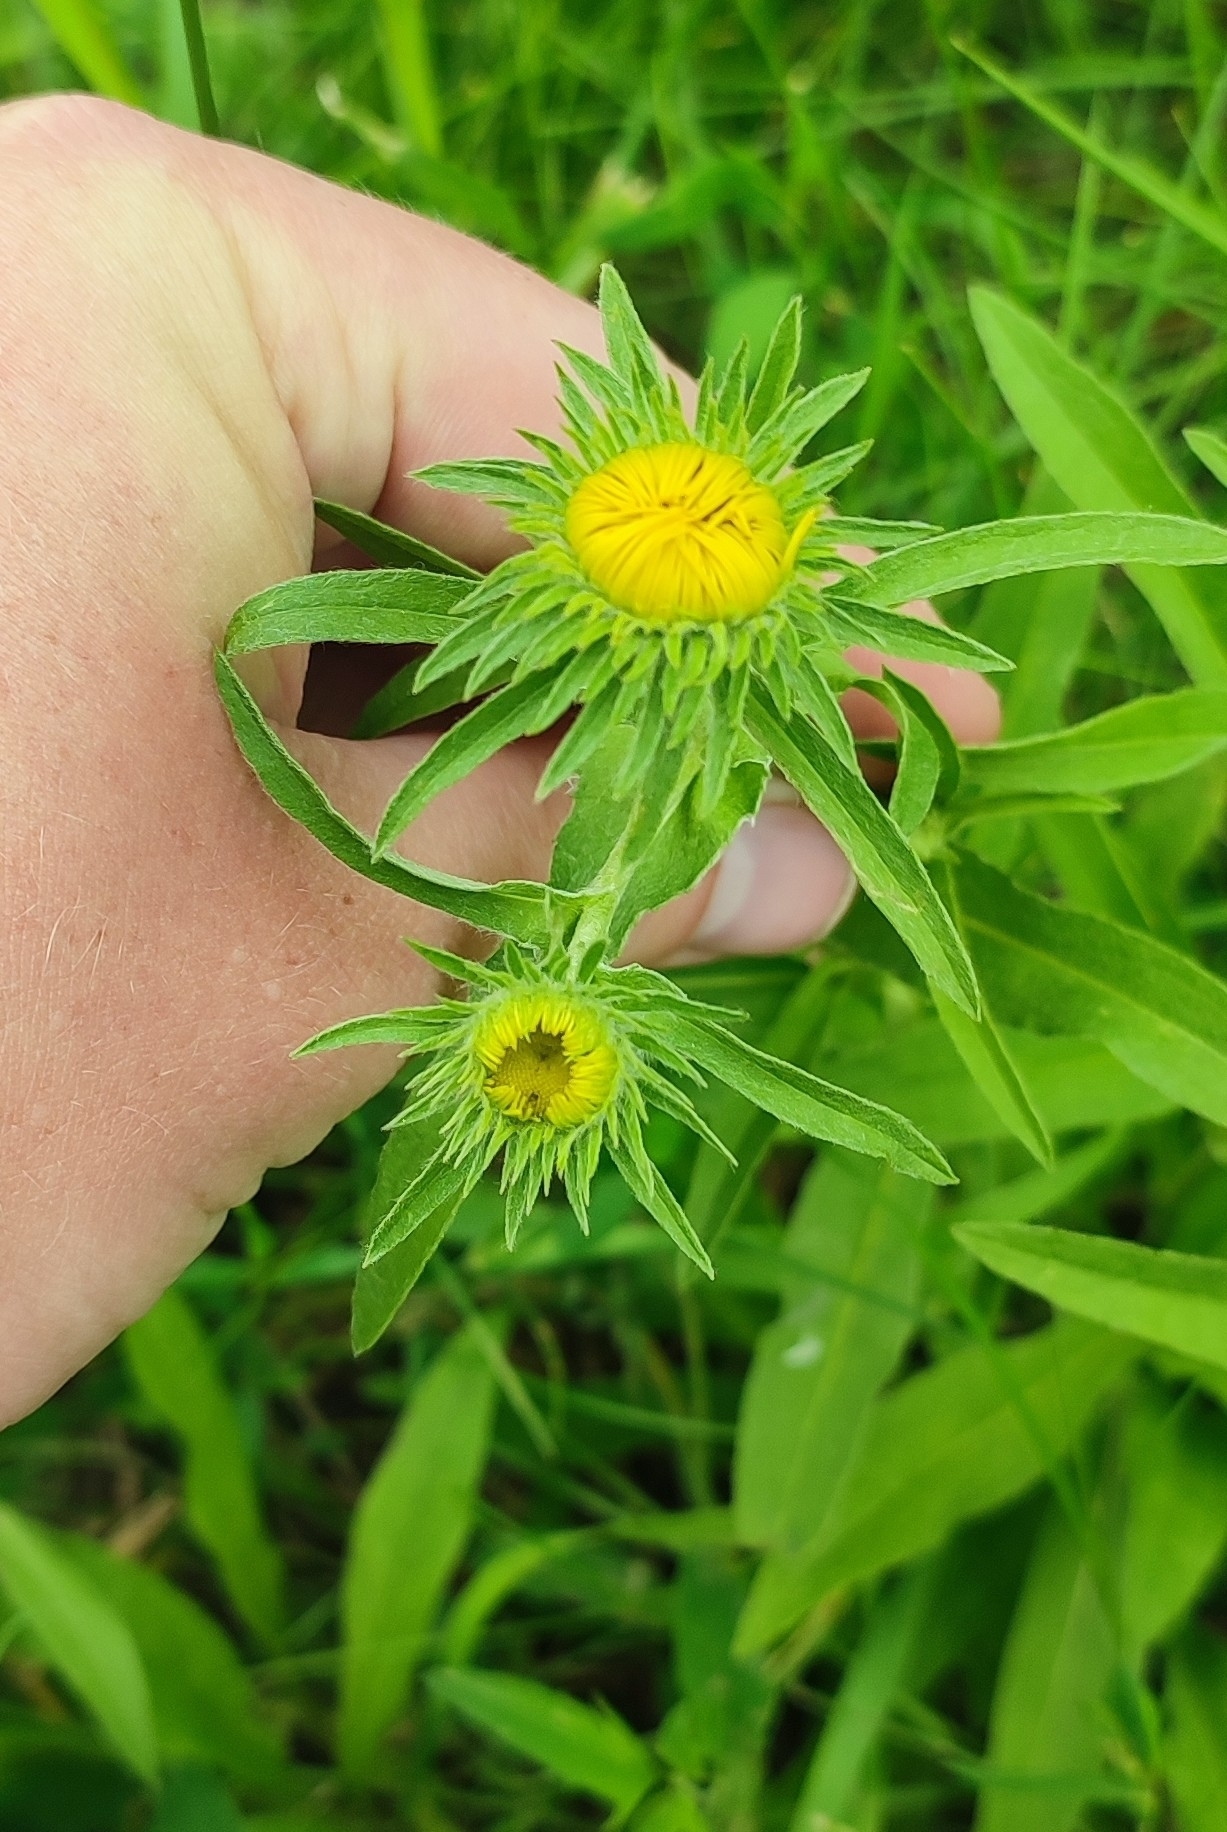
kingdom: Plantae
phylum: Tracheophyta
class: Magnoliopsida
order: Asterales
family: Asteraceae
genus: Pentanema
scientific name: Pentanema britannicum
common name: British elecampane
